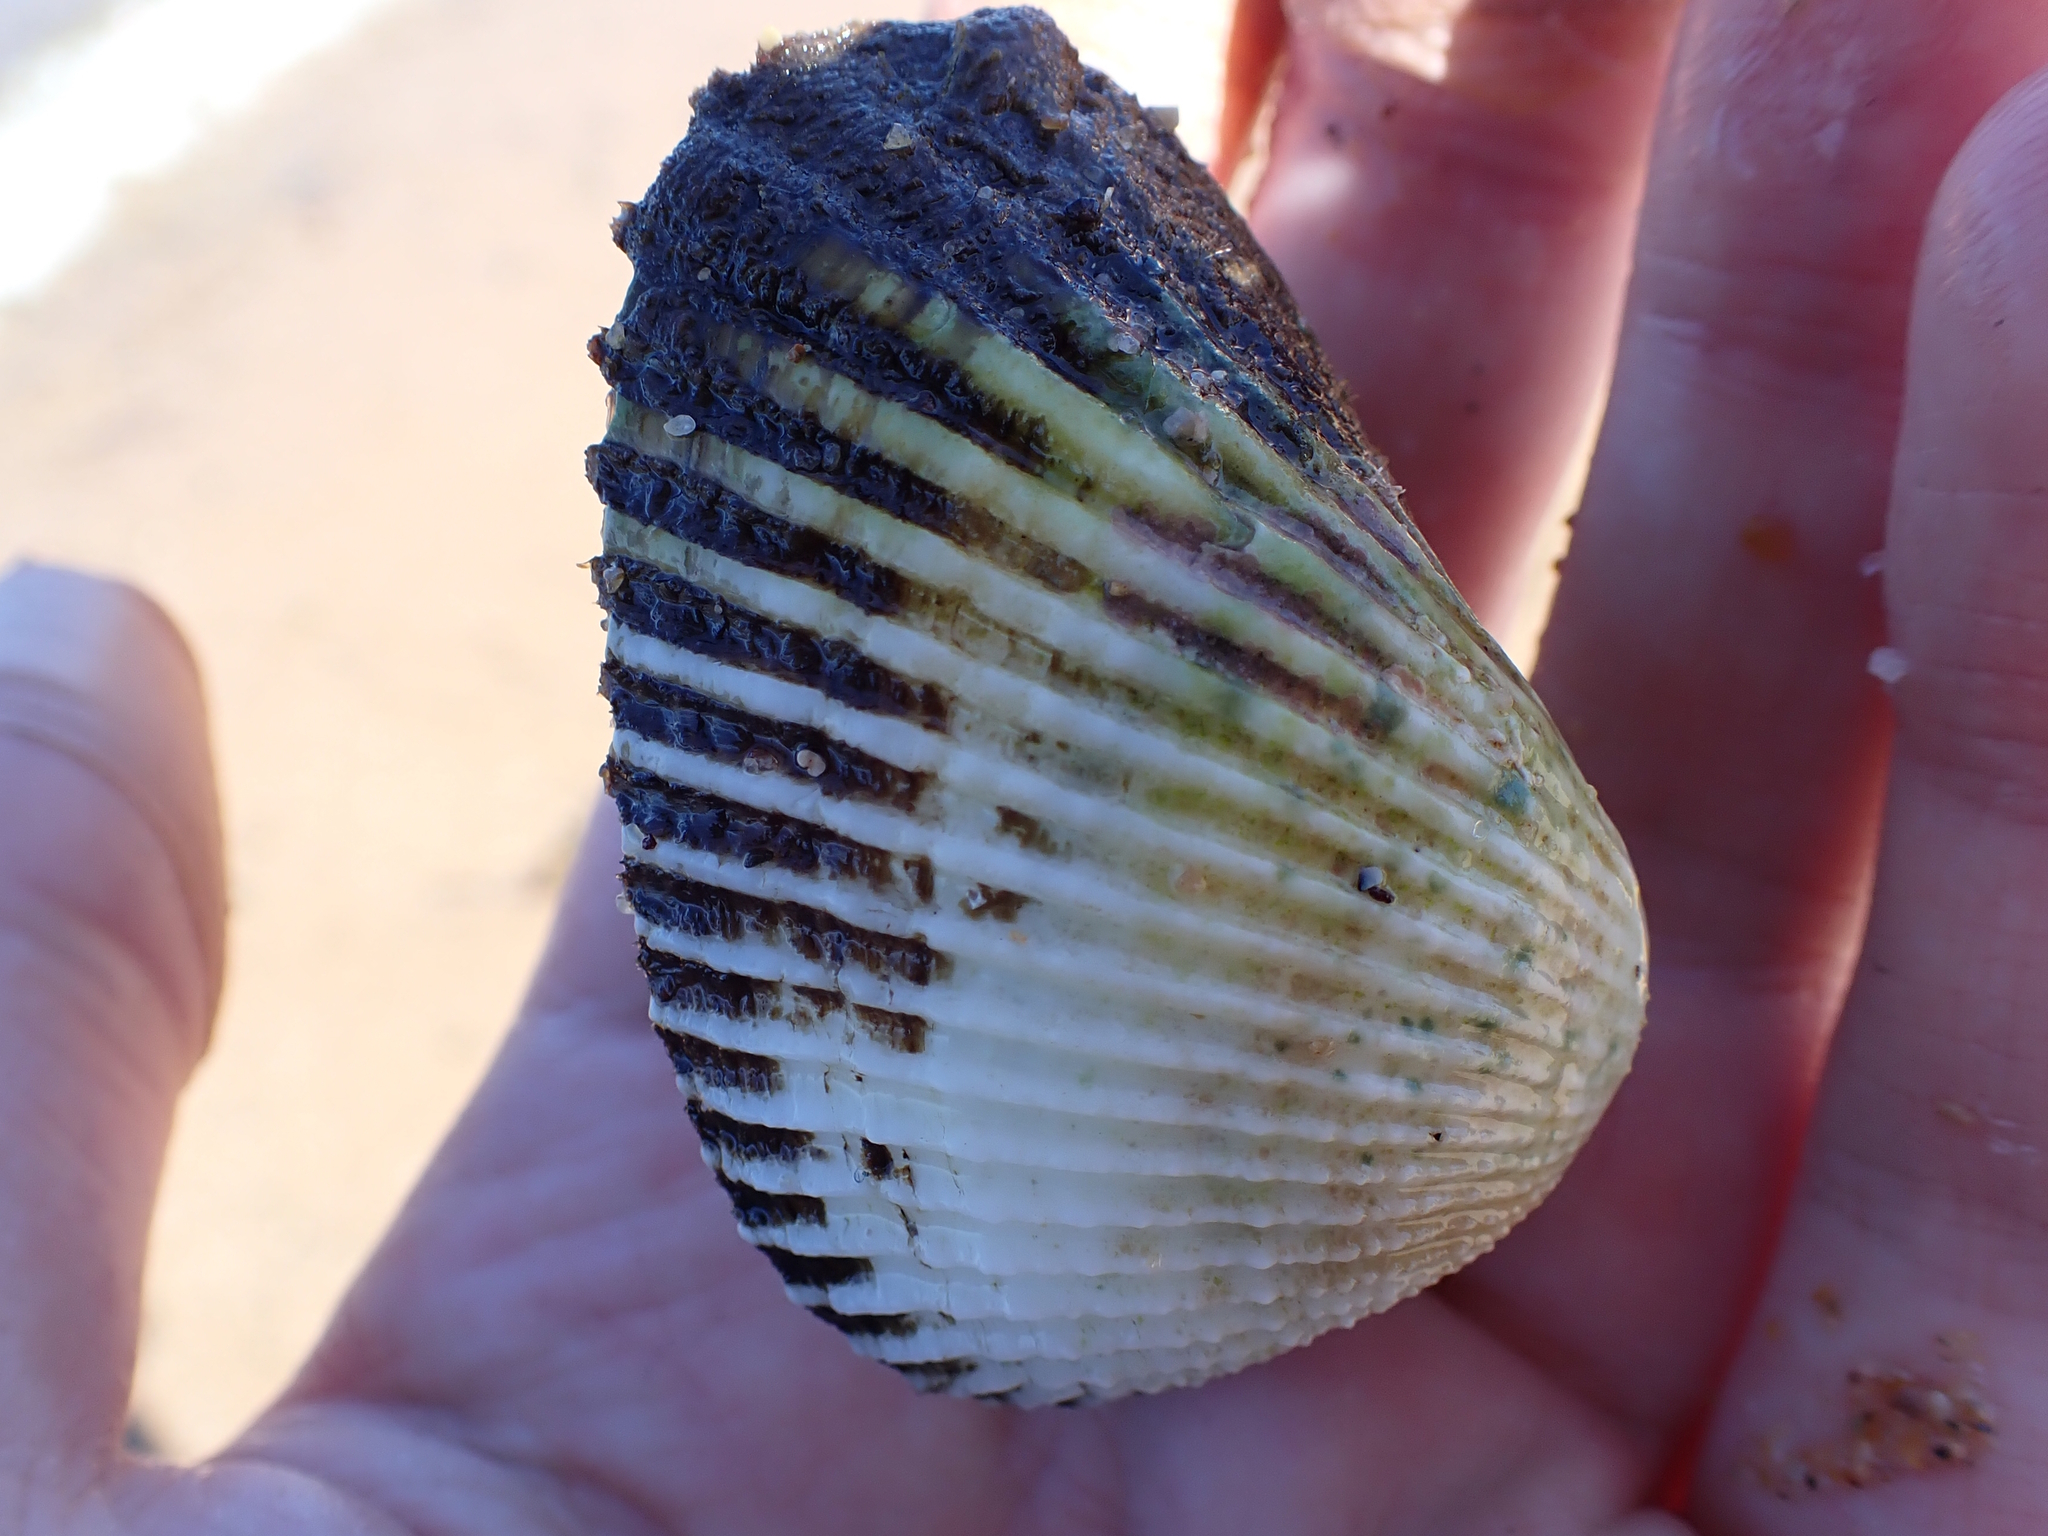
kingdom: Animalia
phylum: Mollusca
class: Bivalvia
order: Arcida
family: Arcidae
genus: Anadara
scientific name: Anadara trapezia
